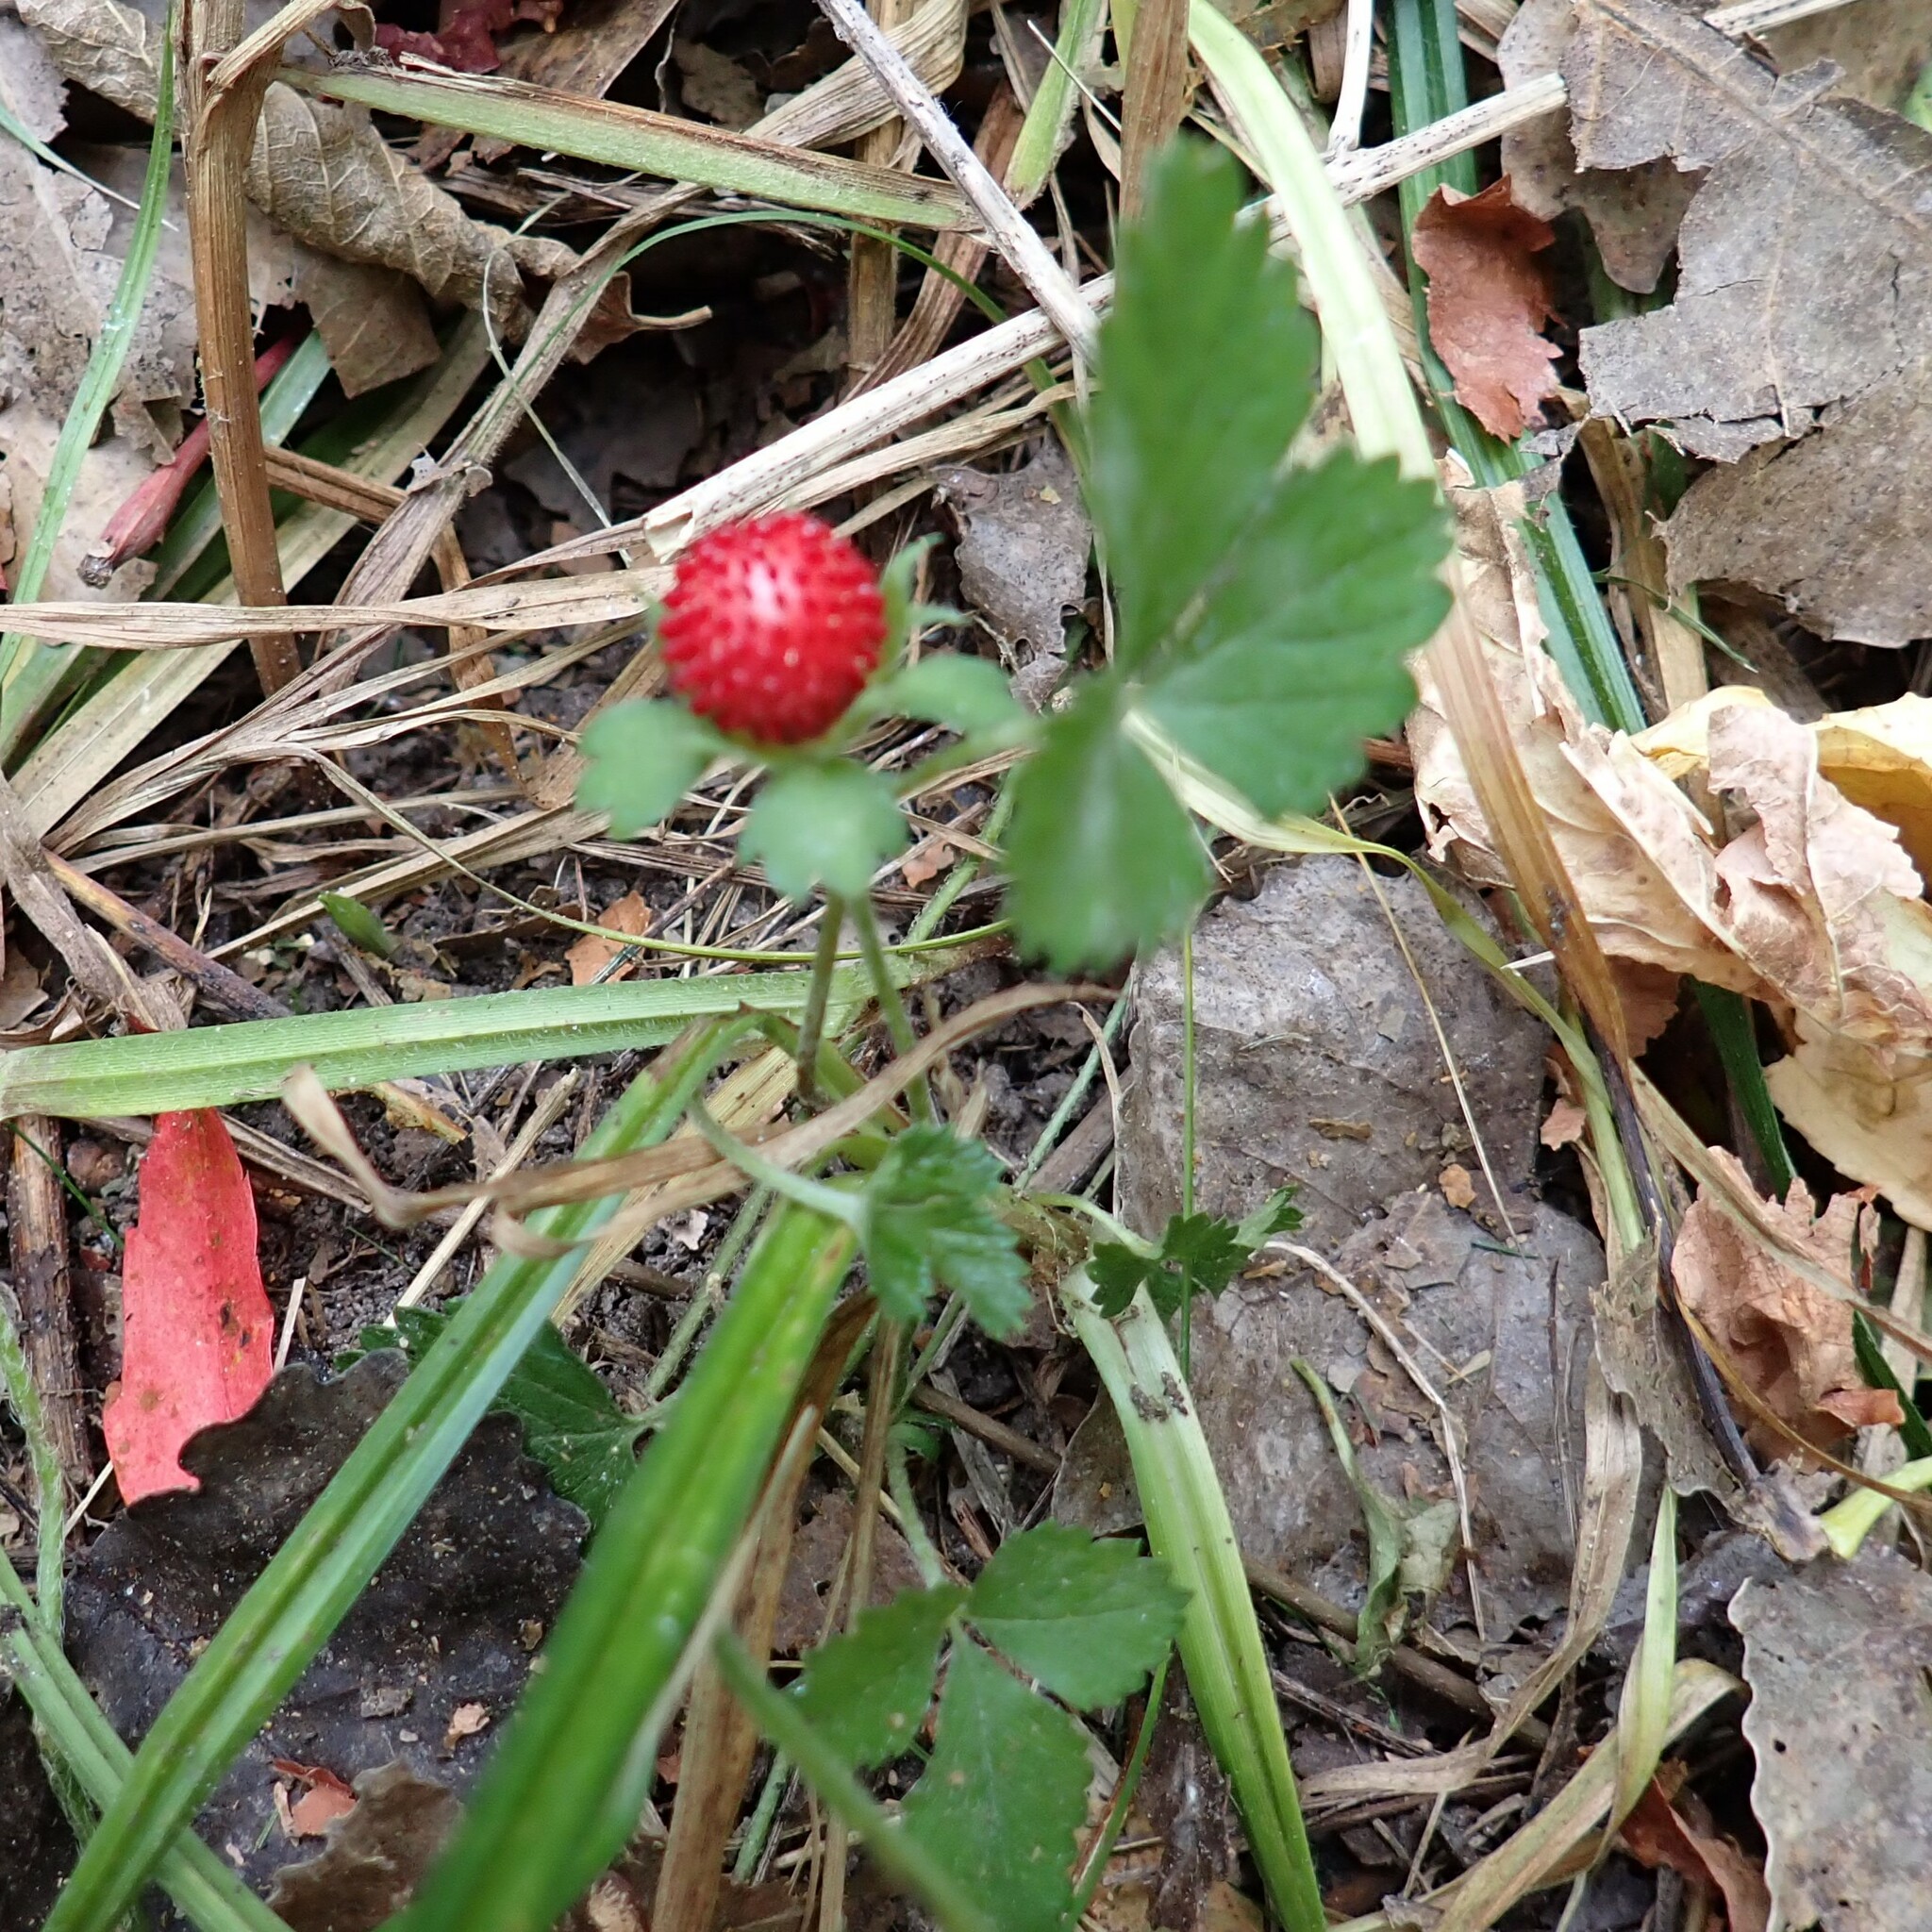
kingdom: Plantae
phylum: Tracheophyta
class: Magnoliopsida
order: Rosales
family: Rosaceae
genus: Potentilla
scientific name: Potentilla indica
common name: Yellow-flowered strawberry
